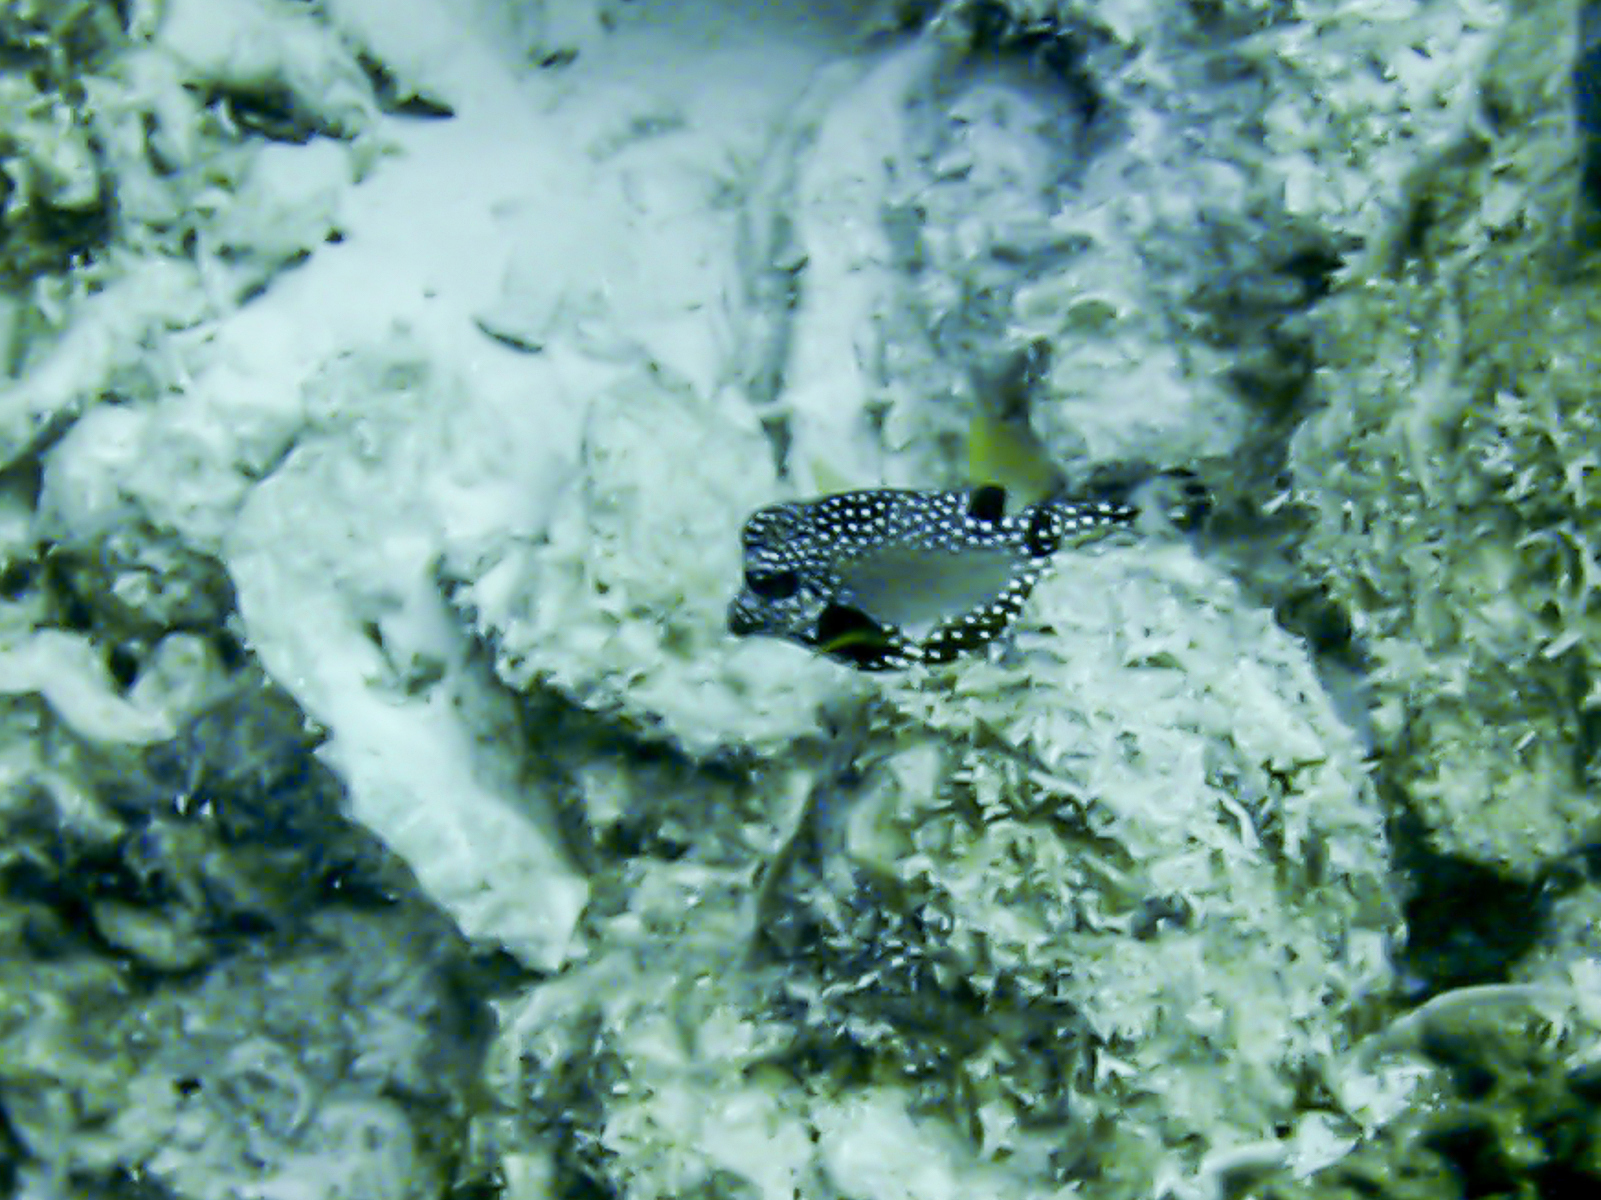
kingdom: Animalia
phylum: Chordata
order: Tetraodontiformes
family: Ostraciidae
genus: Lactophrys
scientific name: Lactophrys triqueter
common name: Smooth trunkfish
